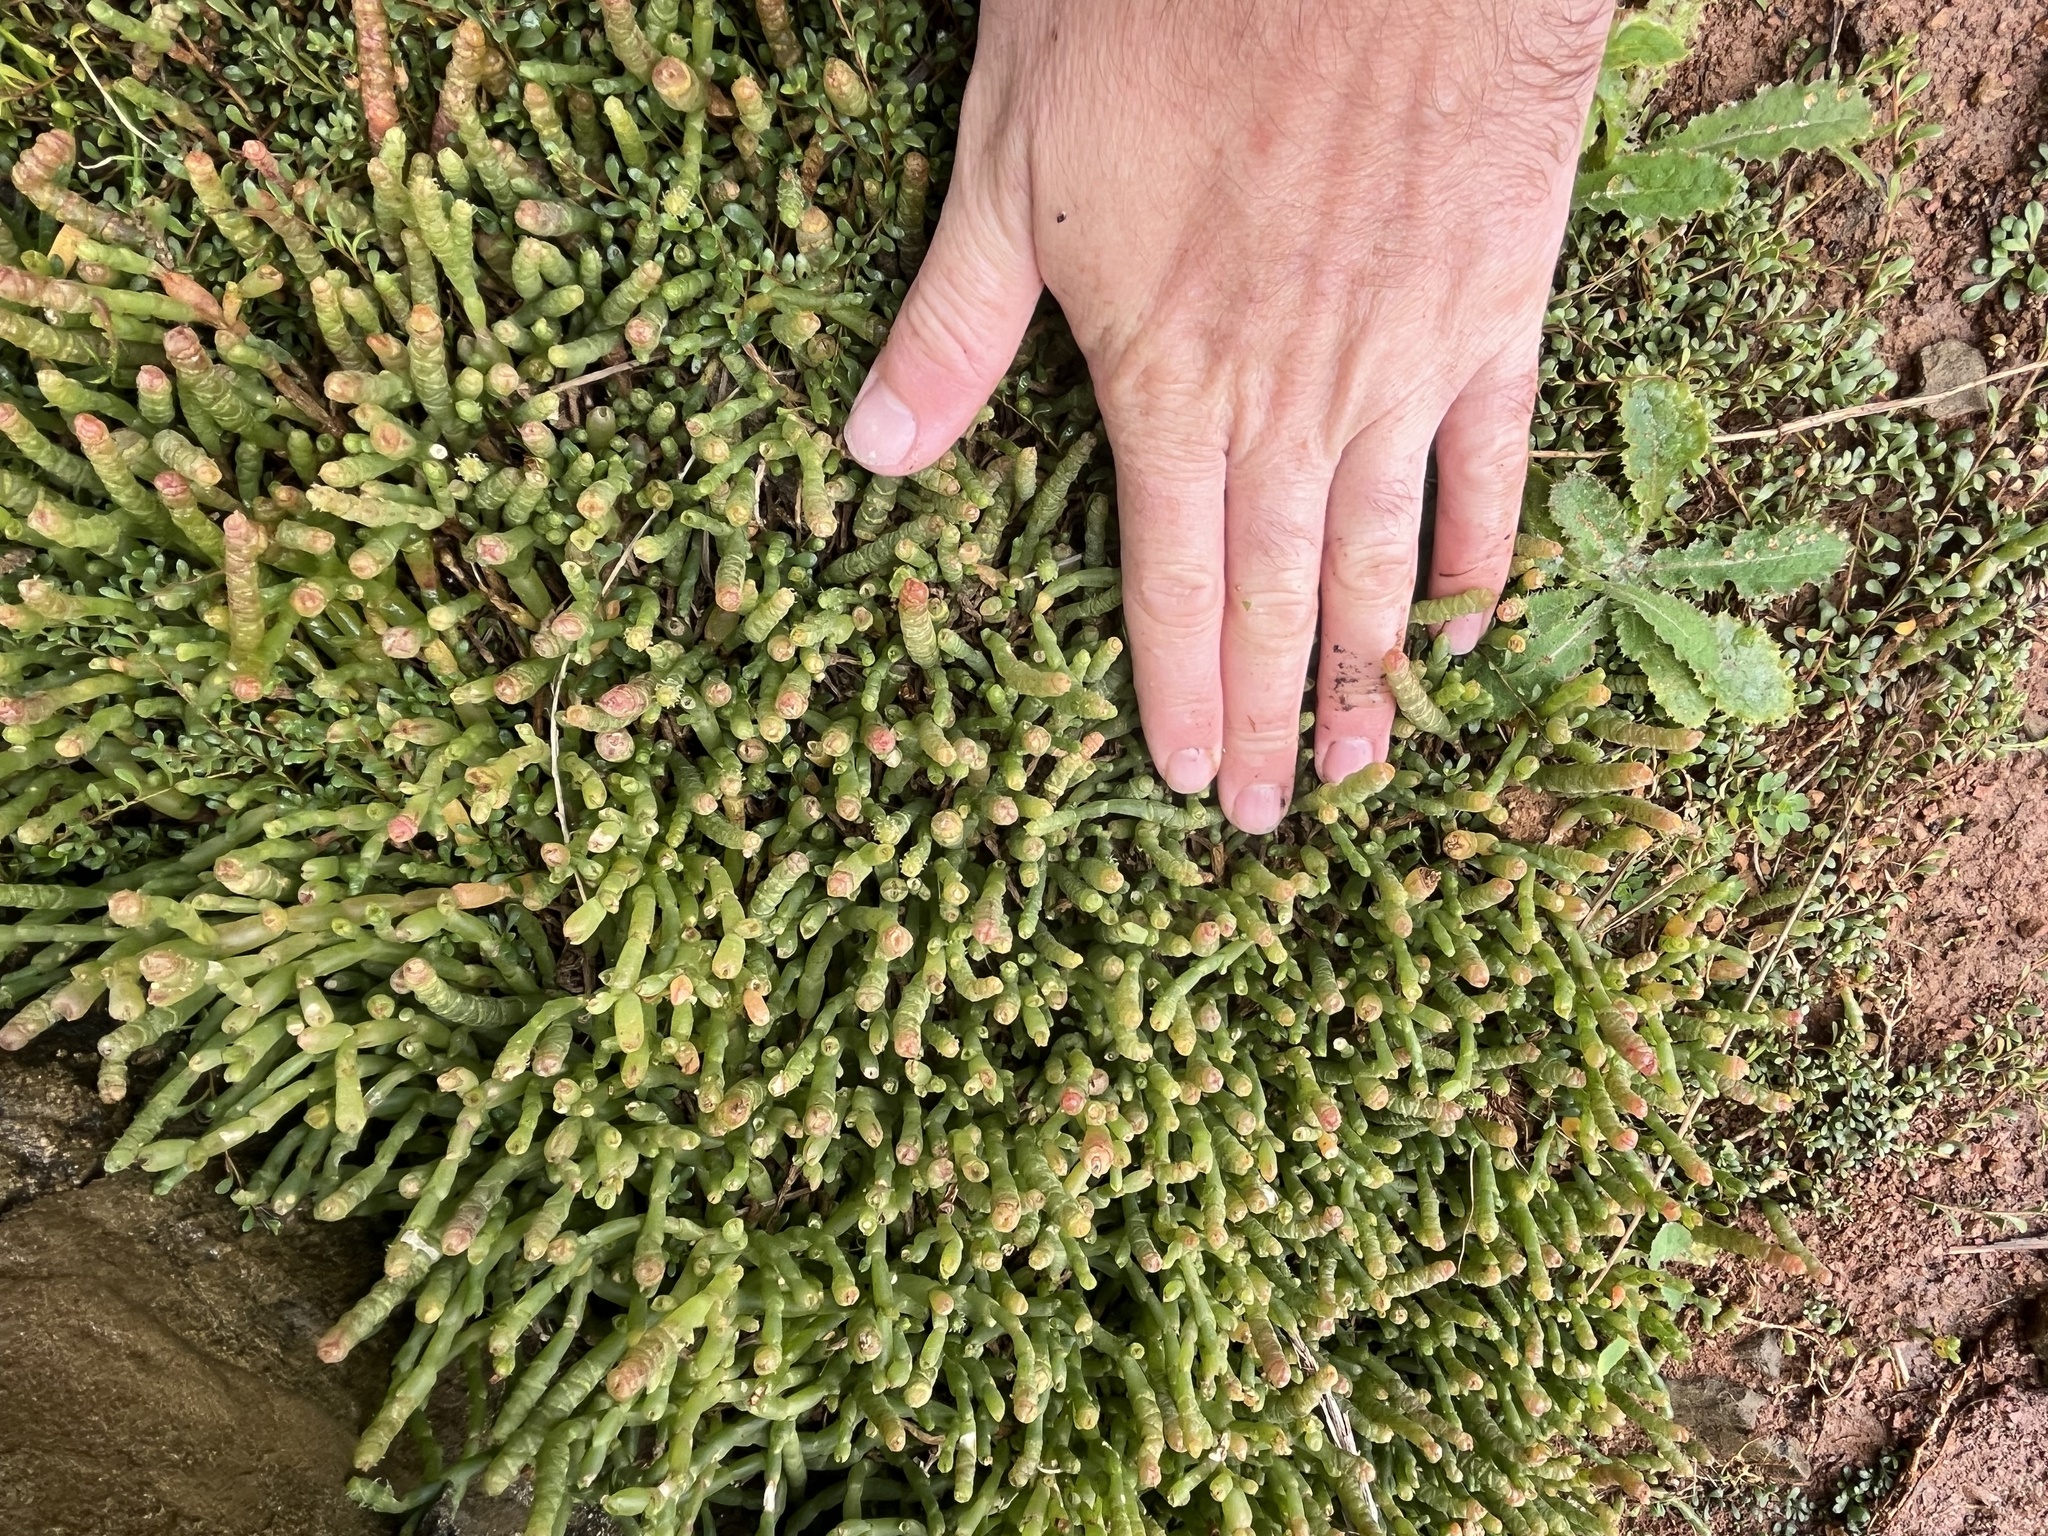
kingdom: Plantae
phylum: Tracheophyta
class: Magnoliopsida
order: Caryophyllales
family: Amaranthaceae
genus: Salicornia
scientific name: Salicornia quinqueflora
